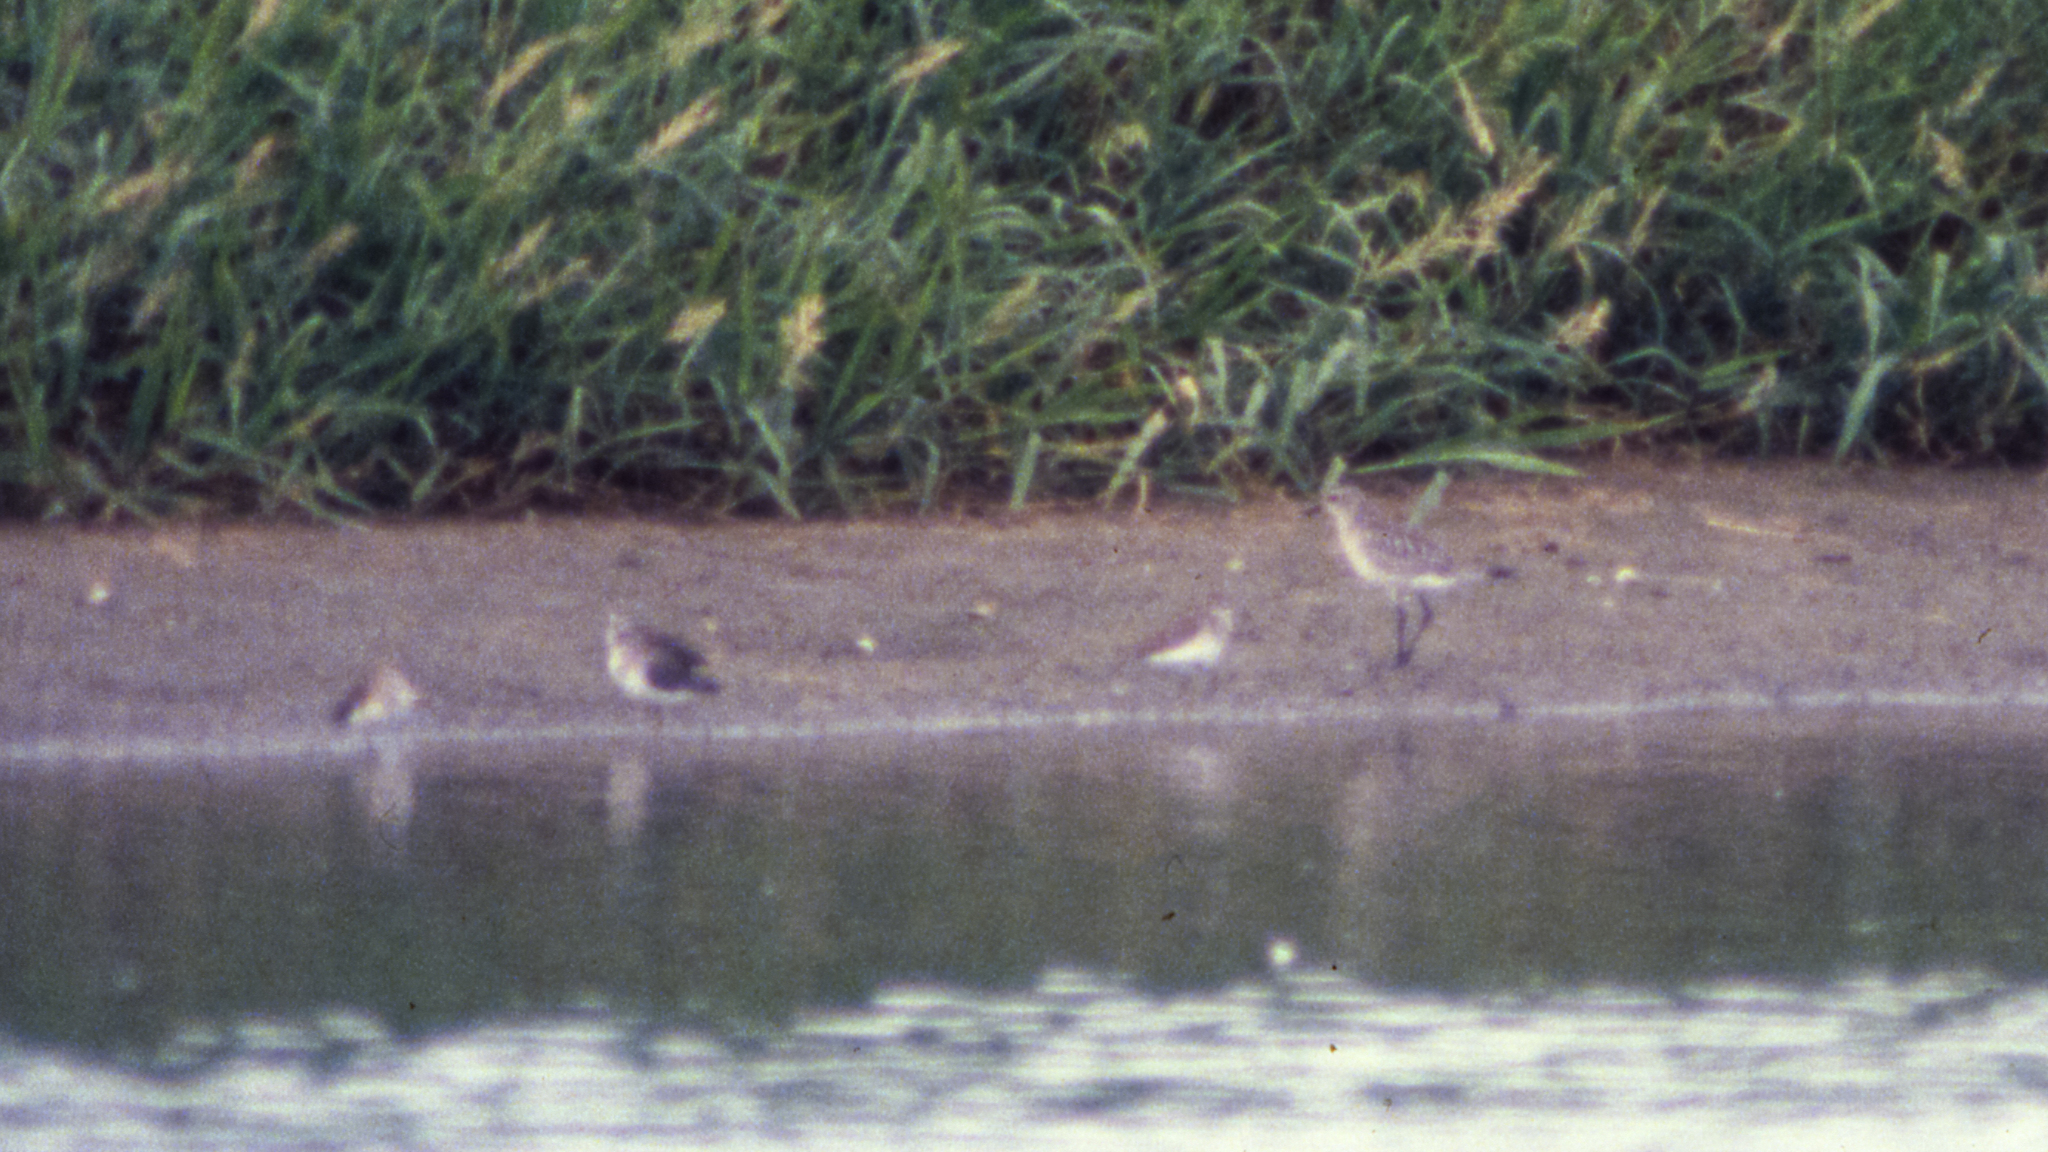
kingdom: Animalia
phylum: Chordata
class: Aves
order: Charadriiformes
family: Charadriidae
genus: Pluvialis
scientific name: Pluvialis squatarola
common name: Grey plover
